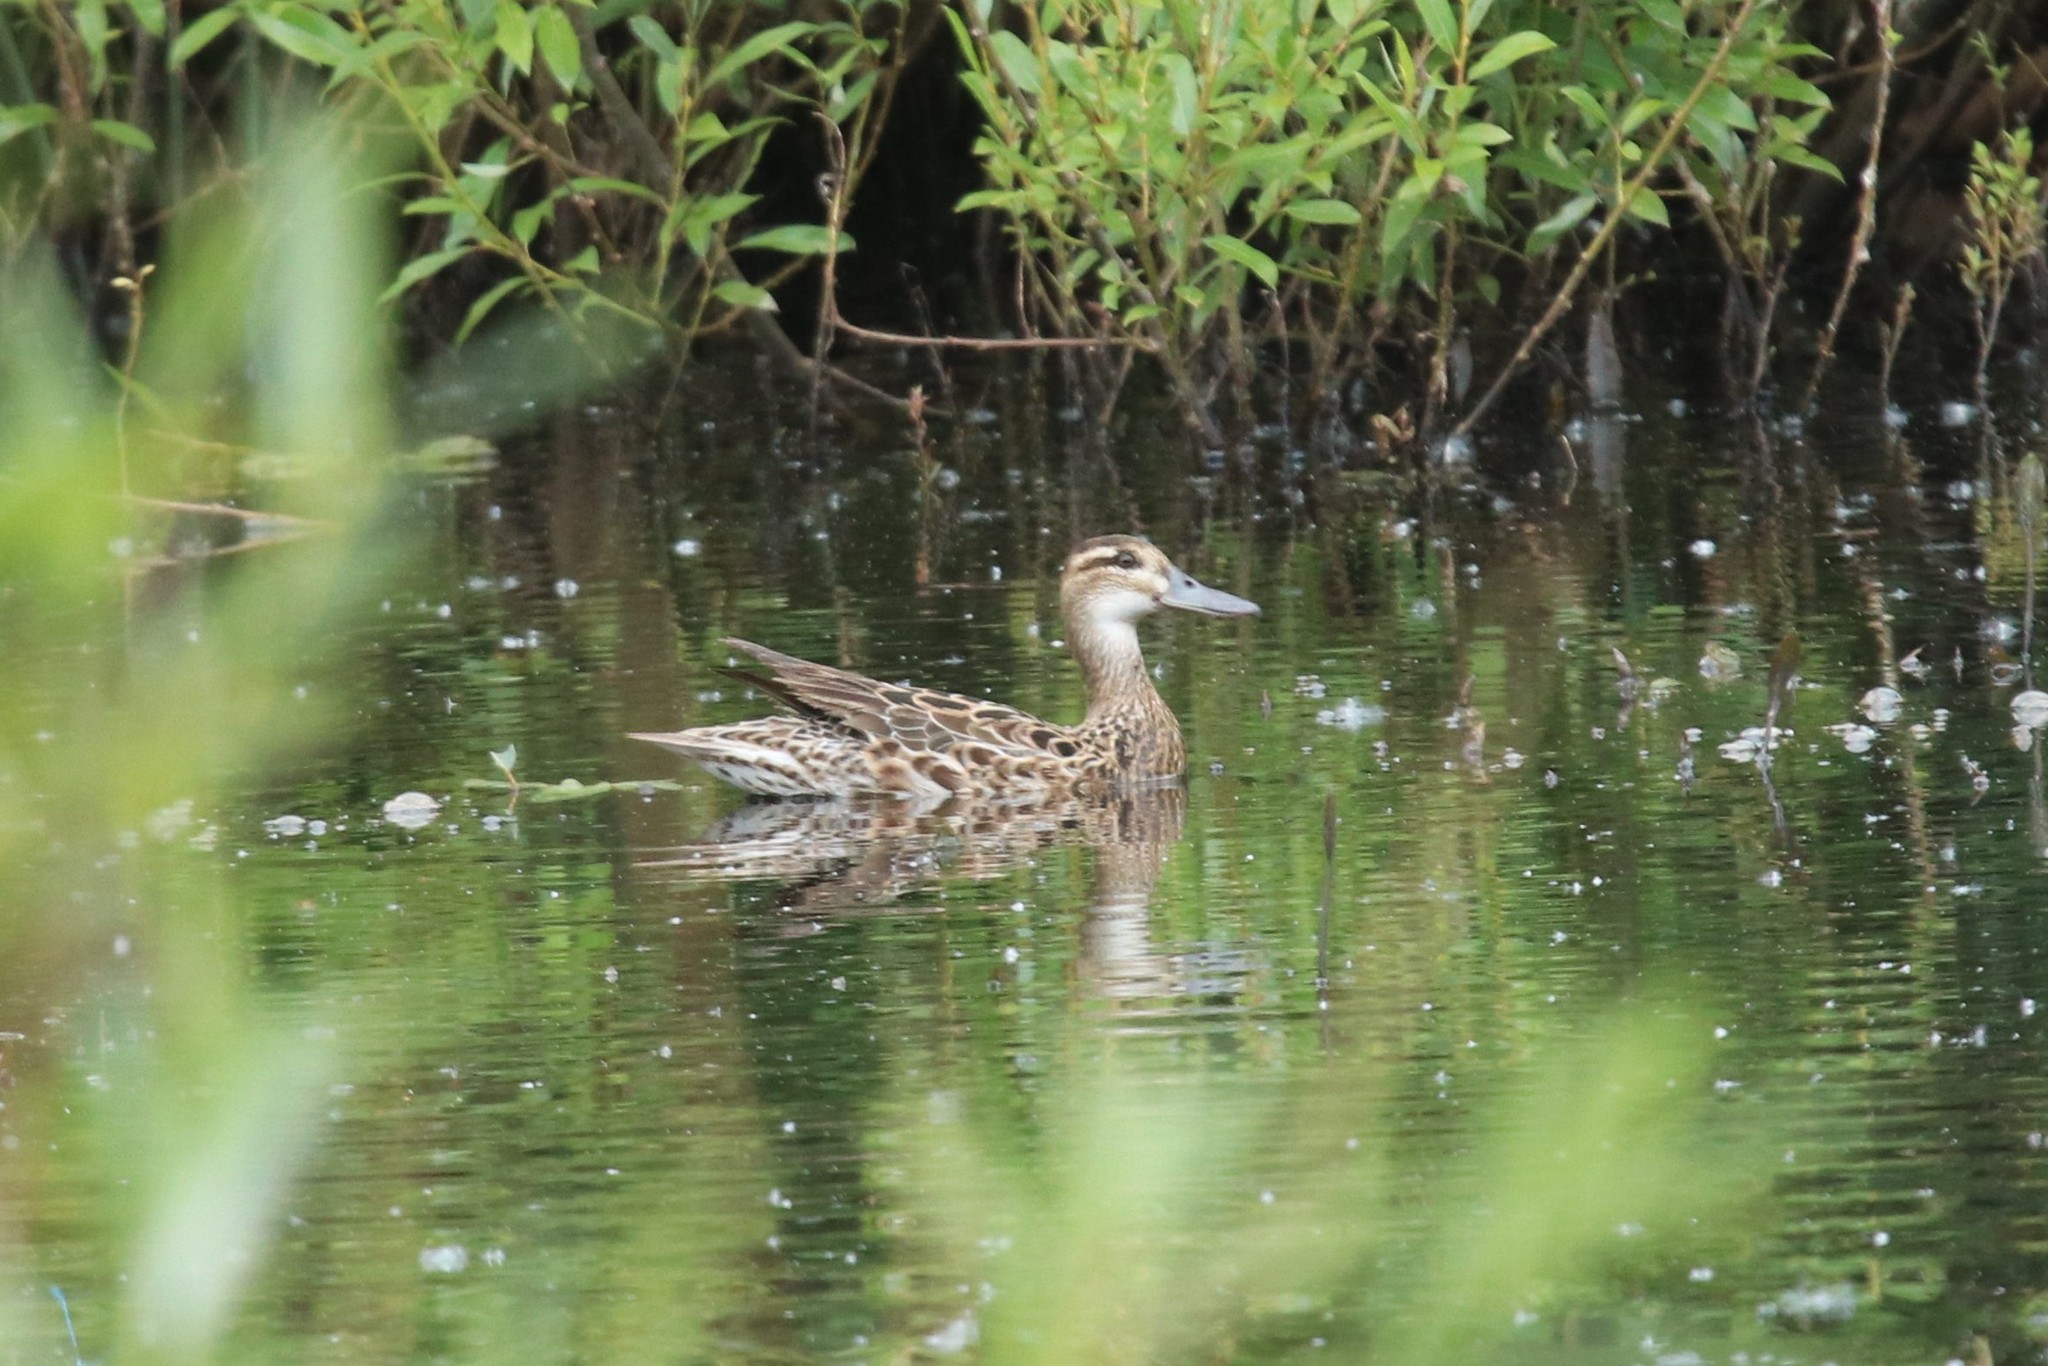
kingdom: Animalia
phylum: Chordata
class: Aves
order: Anseriformes
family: Anatidae
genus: Spatula
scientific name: Spatula querquedula
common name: Garganey
